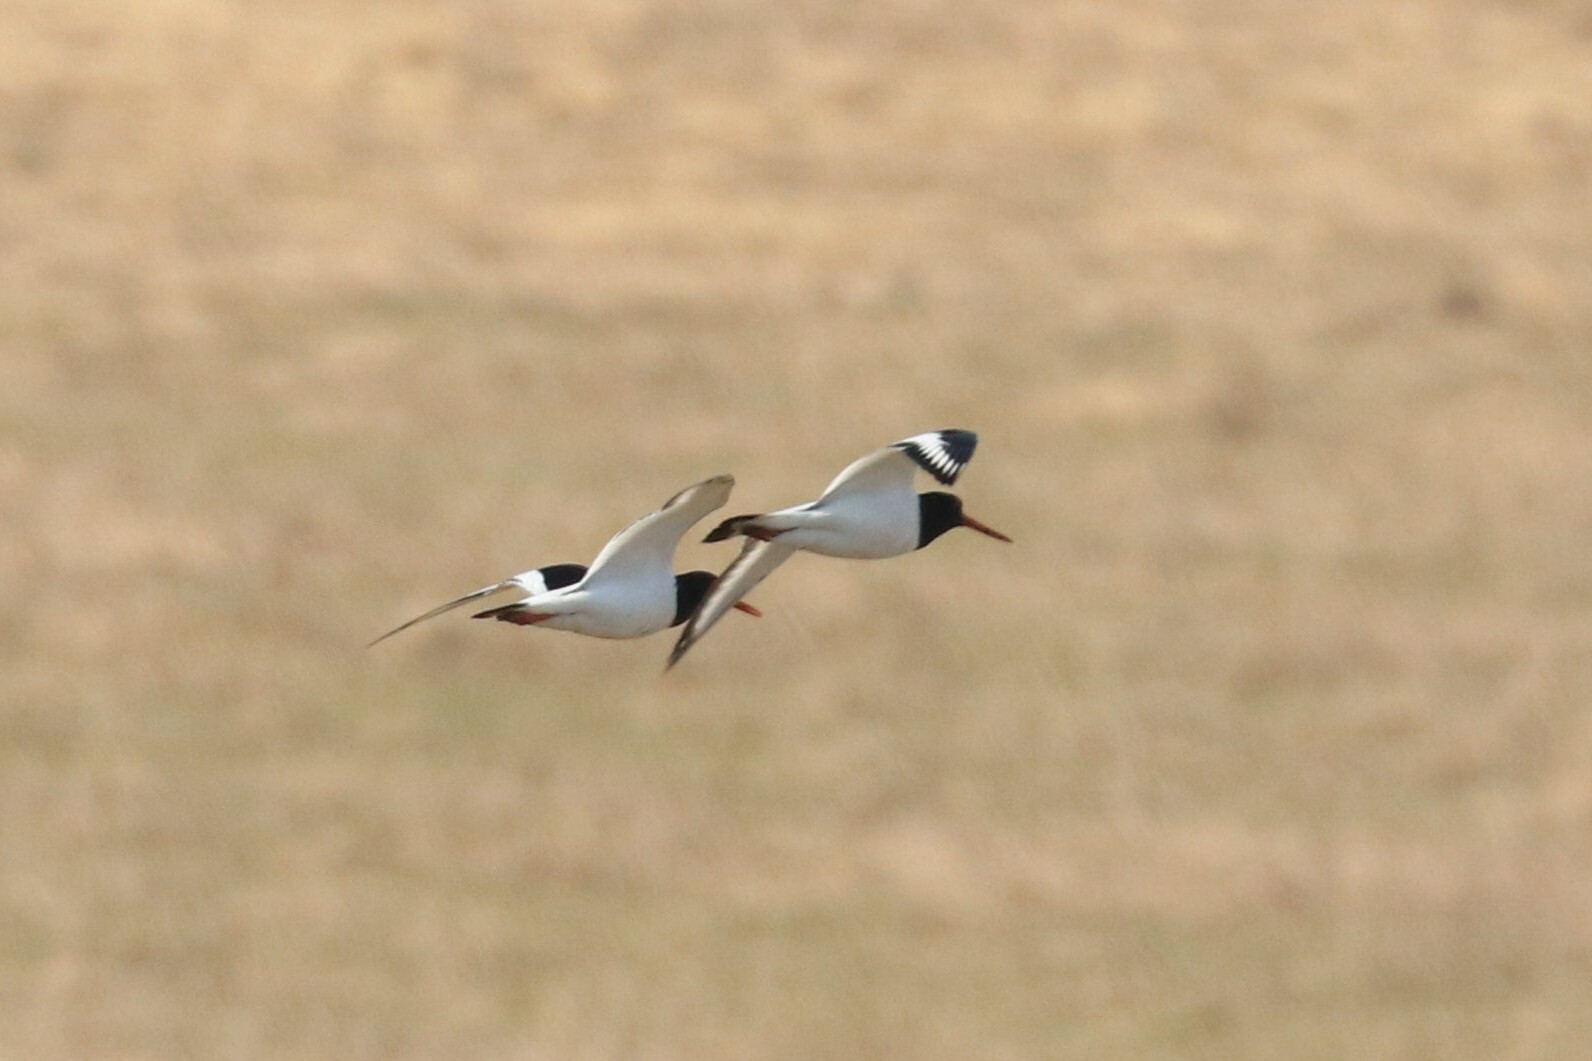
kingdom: Animalia
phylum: Chordata
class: Aves
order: Charadriiformes
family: Haematopodidae
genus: Haematopus
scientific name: Haematopus ostralegus
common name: Eurasian oystercatcher
